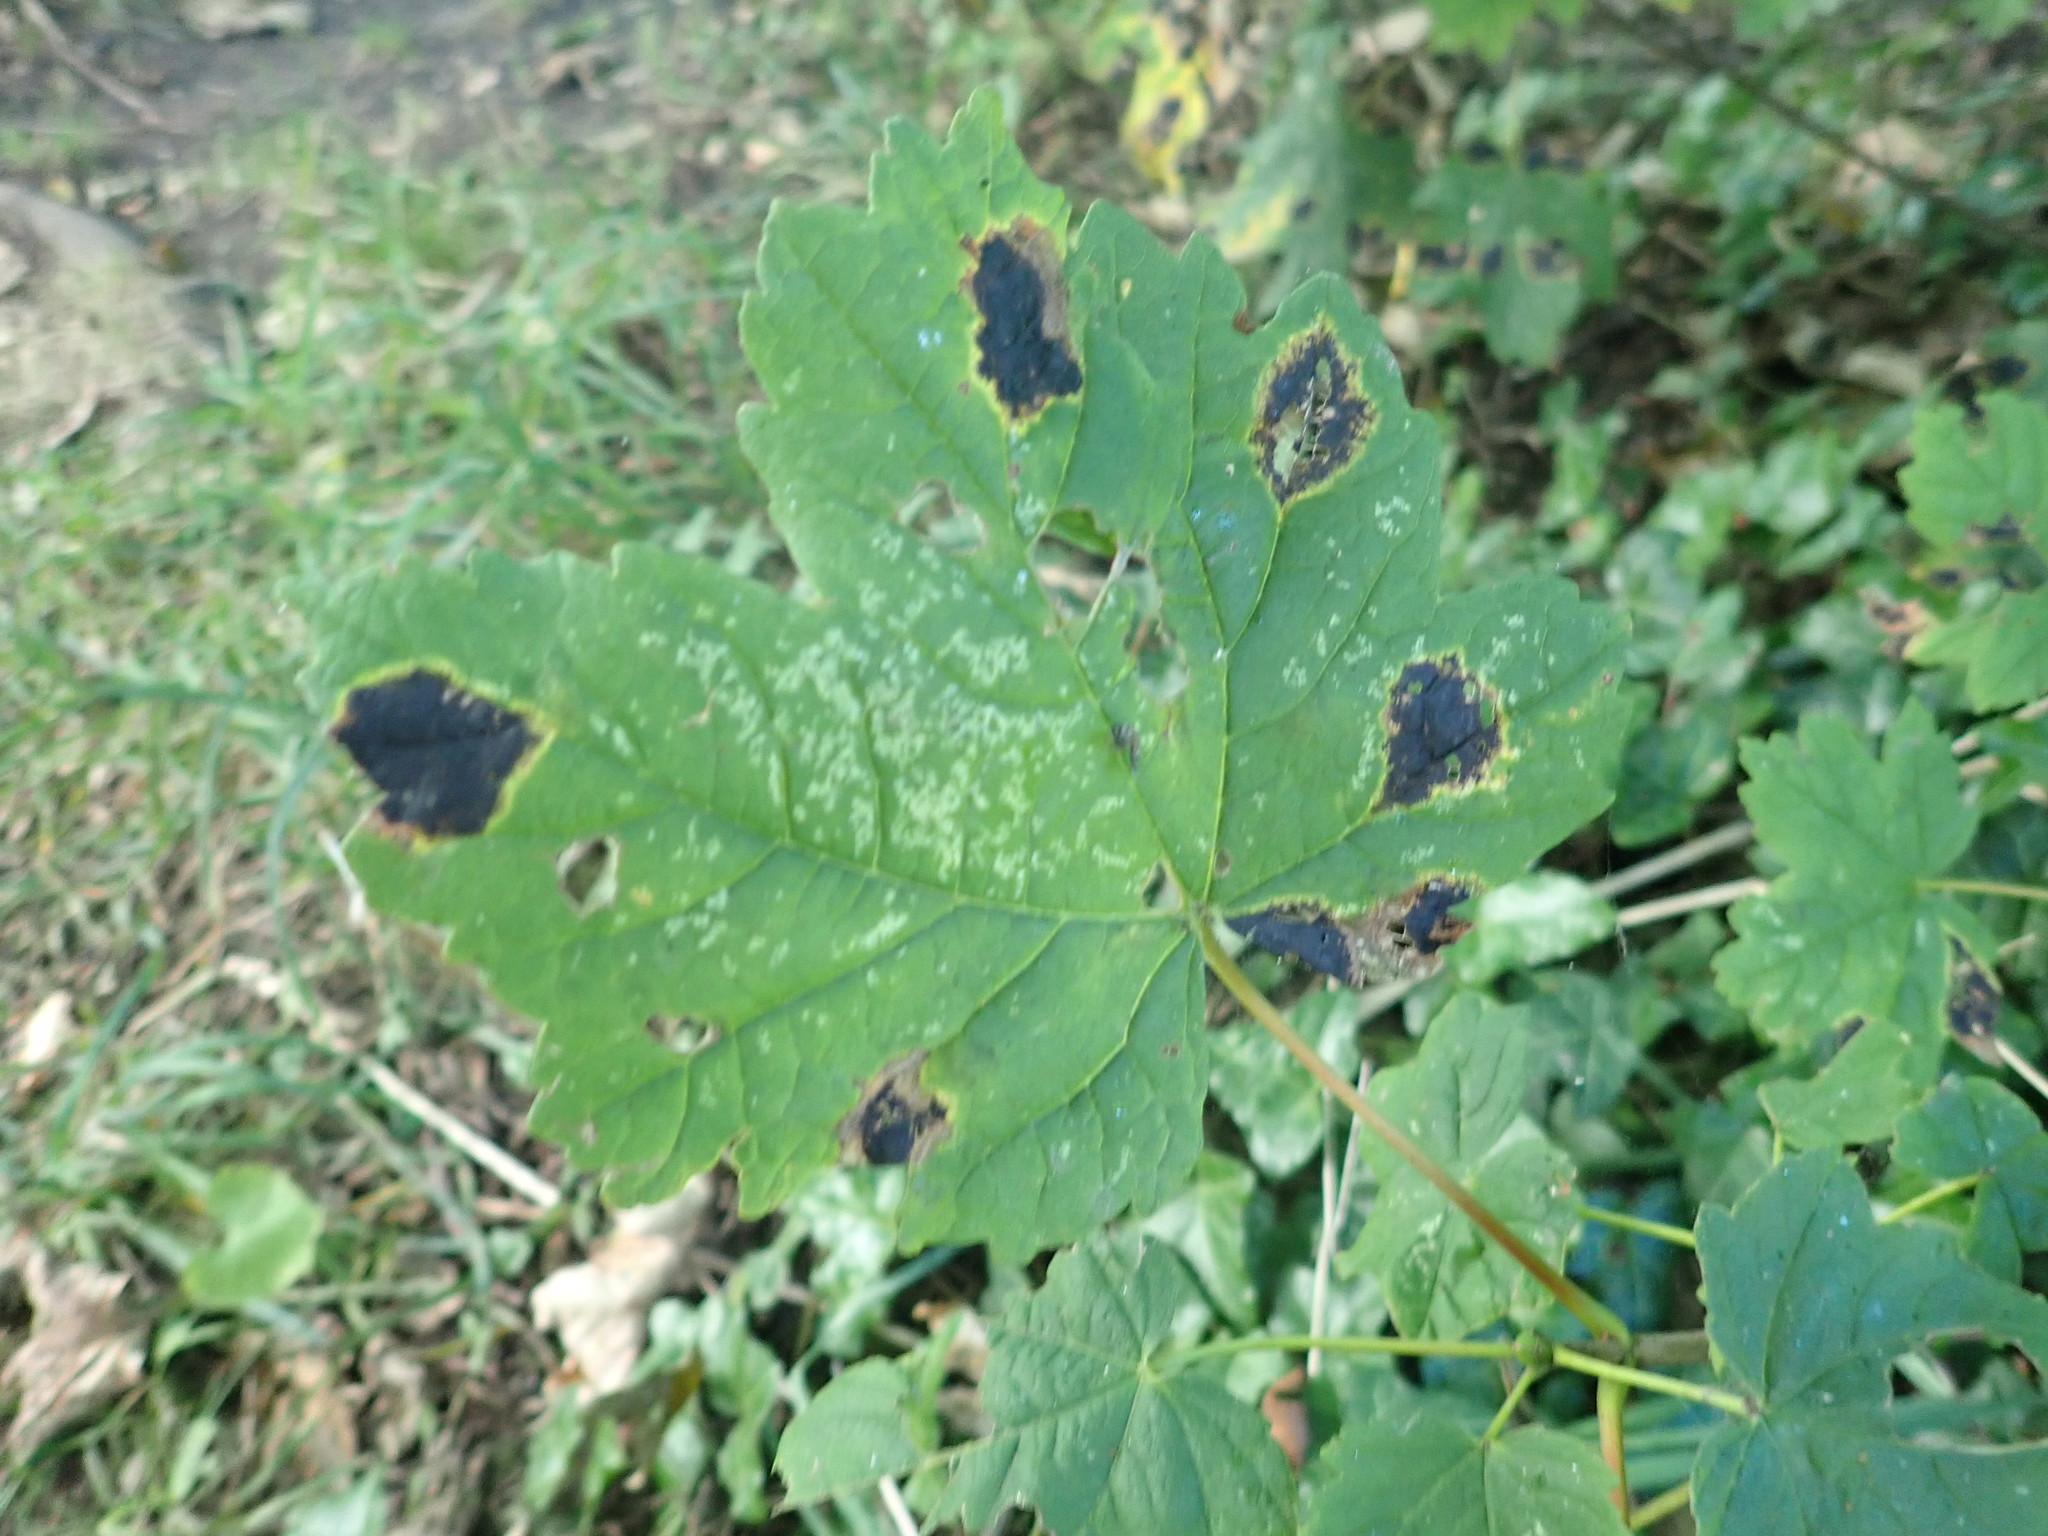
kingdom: Fungi
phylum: Ascomycota
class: Leotiomycetes
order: Rhytismatales
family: Rhytismataceae
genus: Rhytisma
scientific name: Rhytisma acerinum
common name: European tar spot
